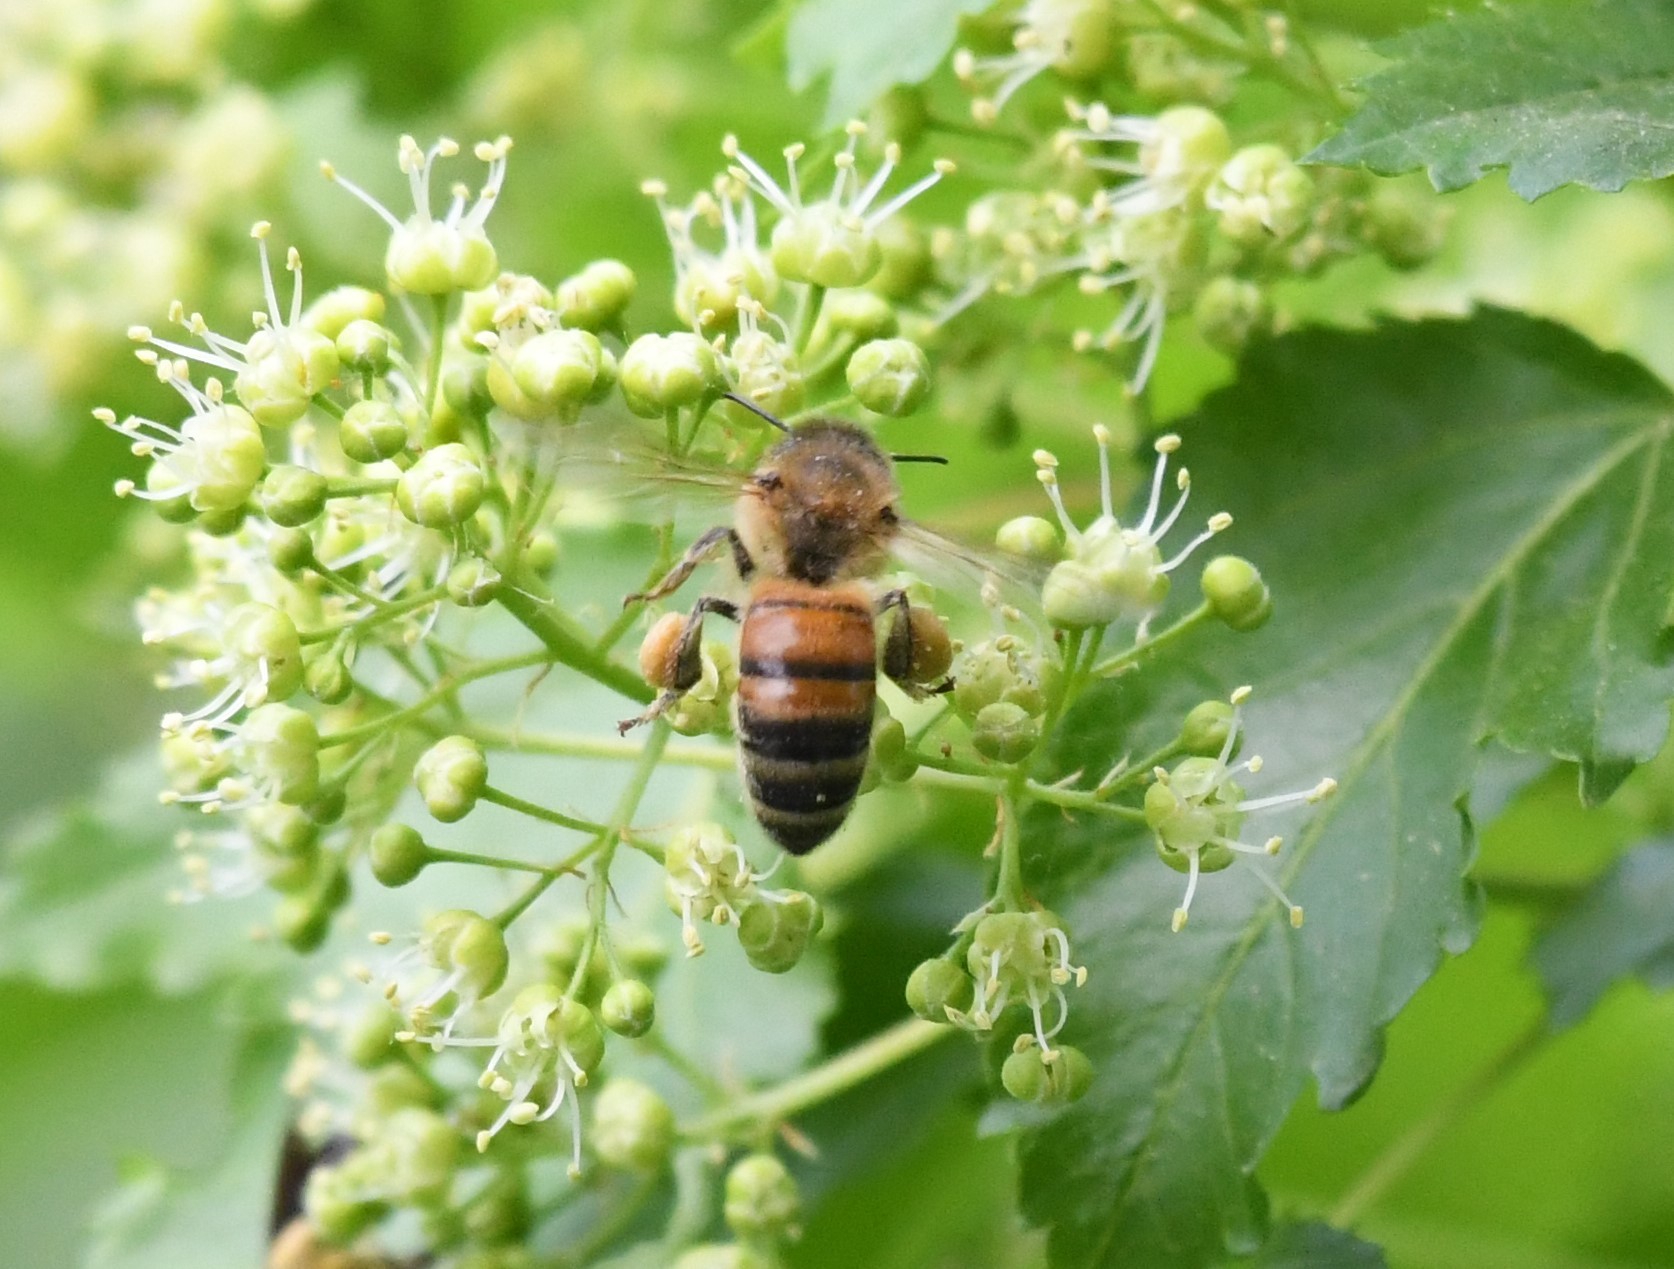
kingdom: Animalia
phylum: Arthropoda
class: Insecta
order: Hymenoptera
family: Apidae
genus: Apis
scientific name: Apis mellifera
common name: Honey bee
